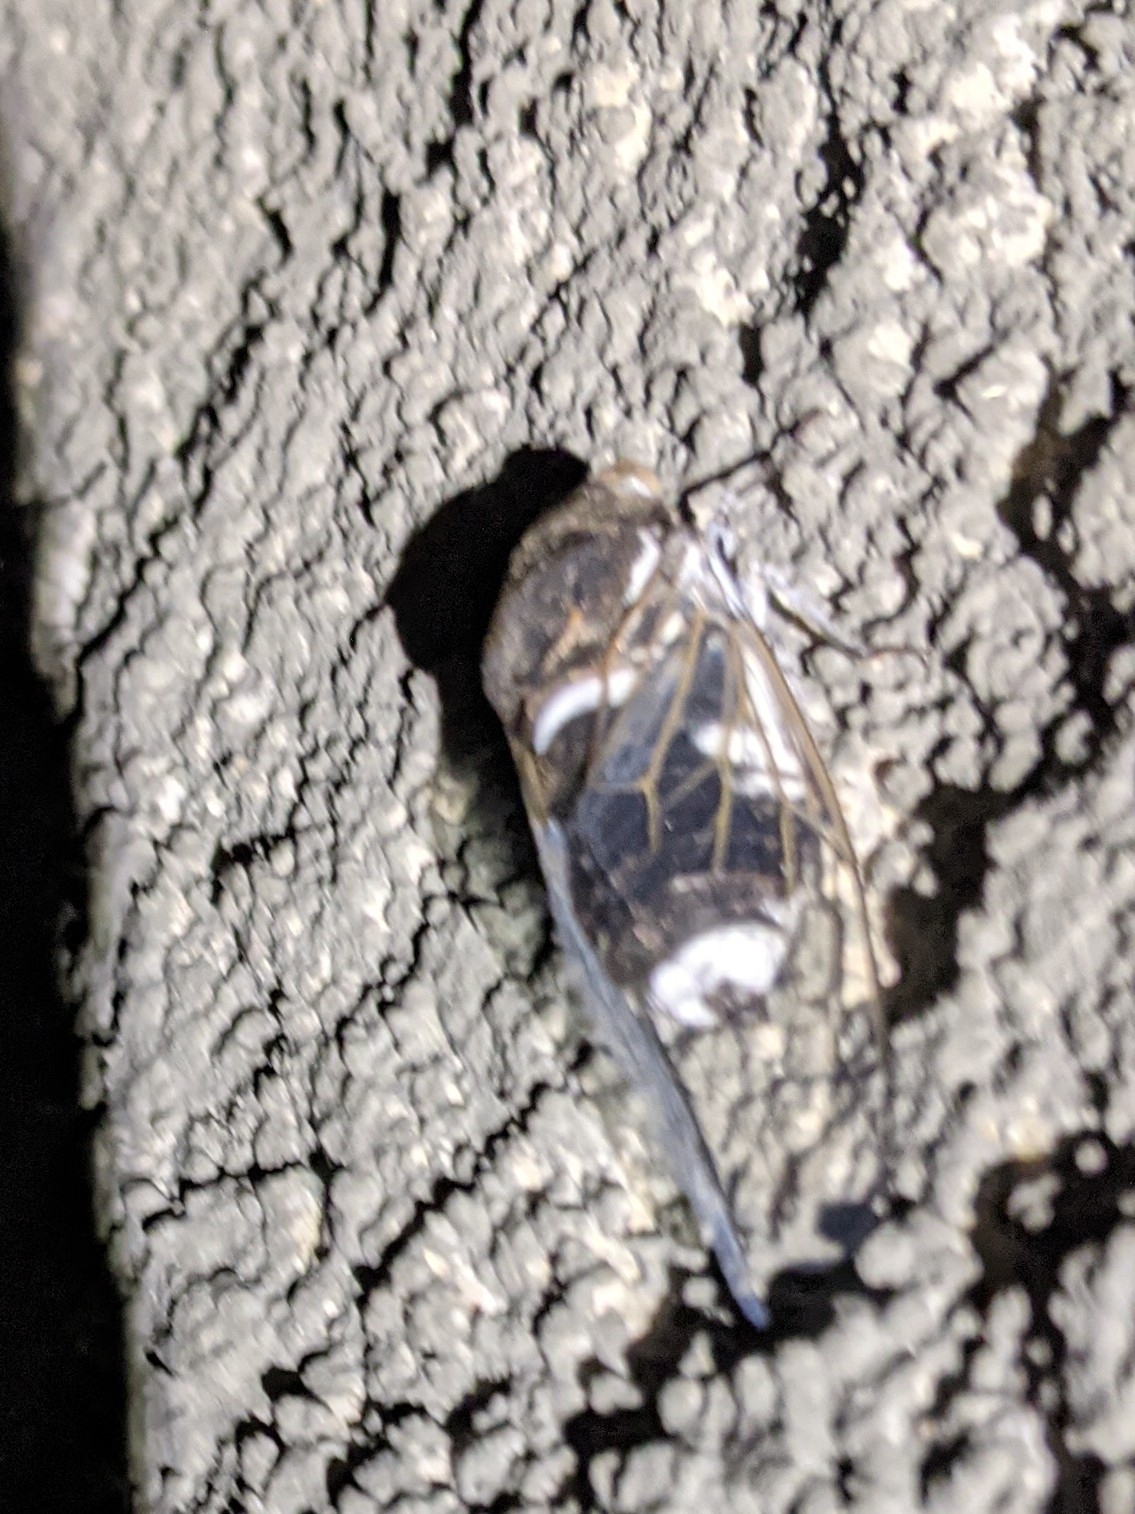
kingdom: Animalia
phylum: Arthropoda
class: Insecta
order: Hemiptera
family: Cicadidae
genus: Cacama
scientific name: Cacama valvata
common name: Cactus dodger
